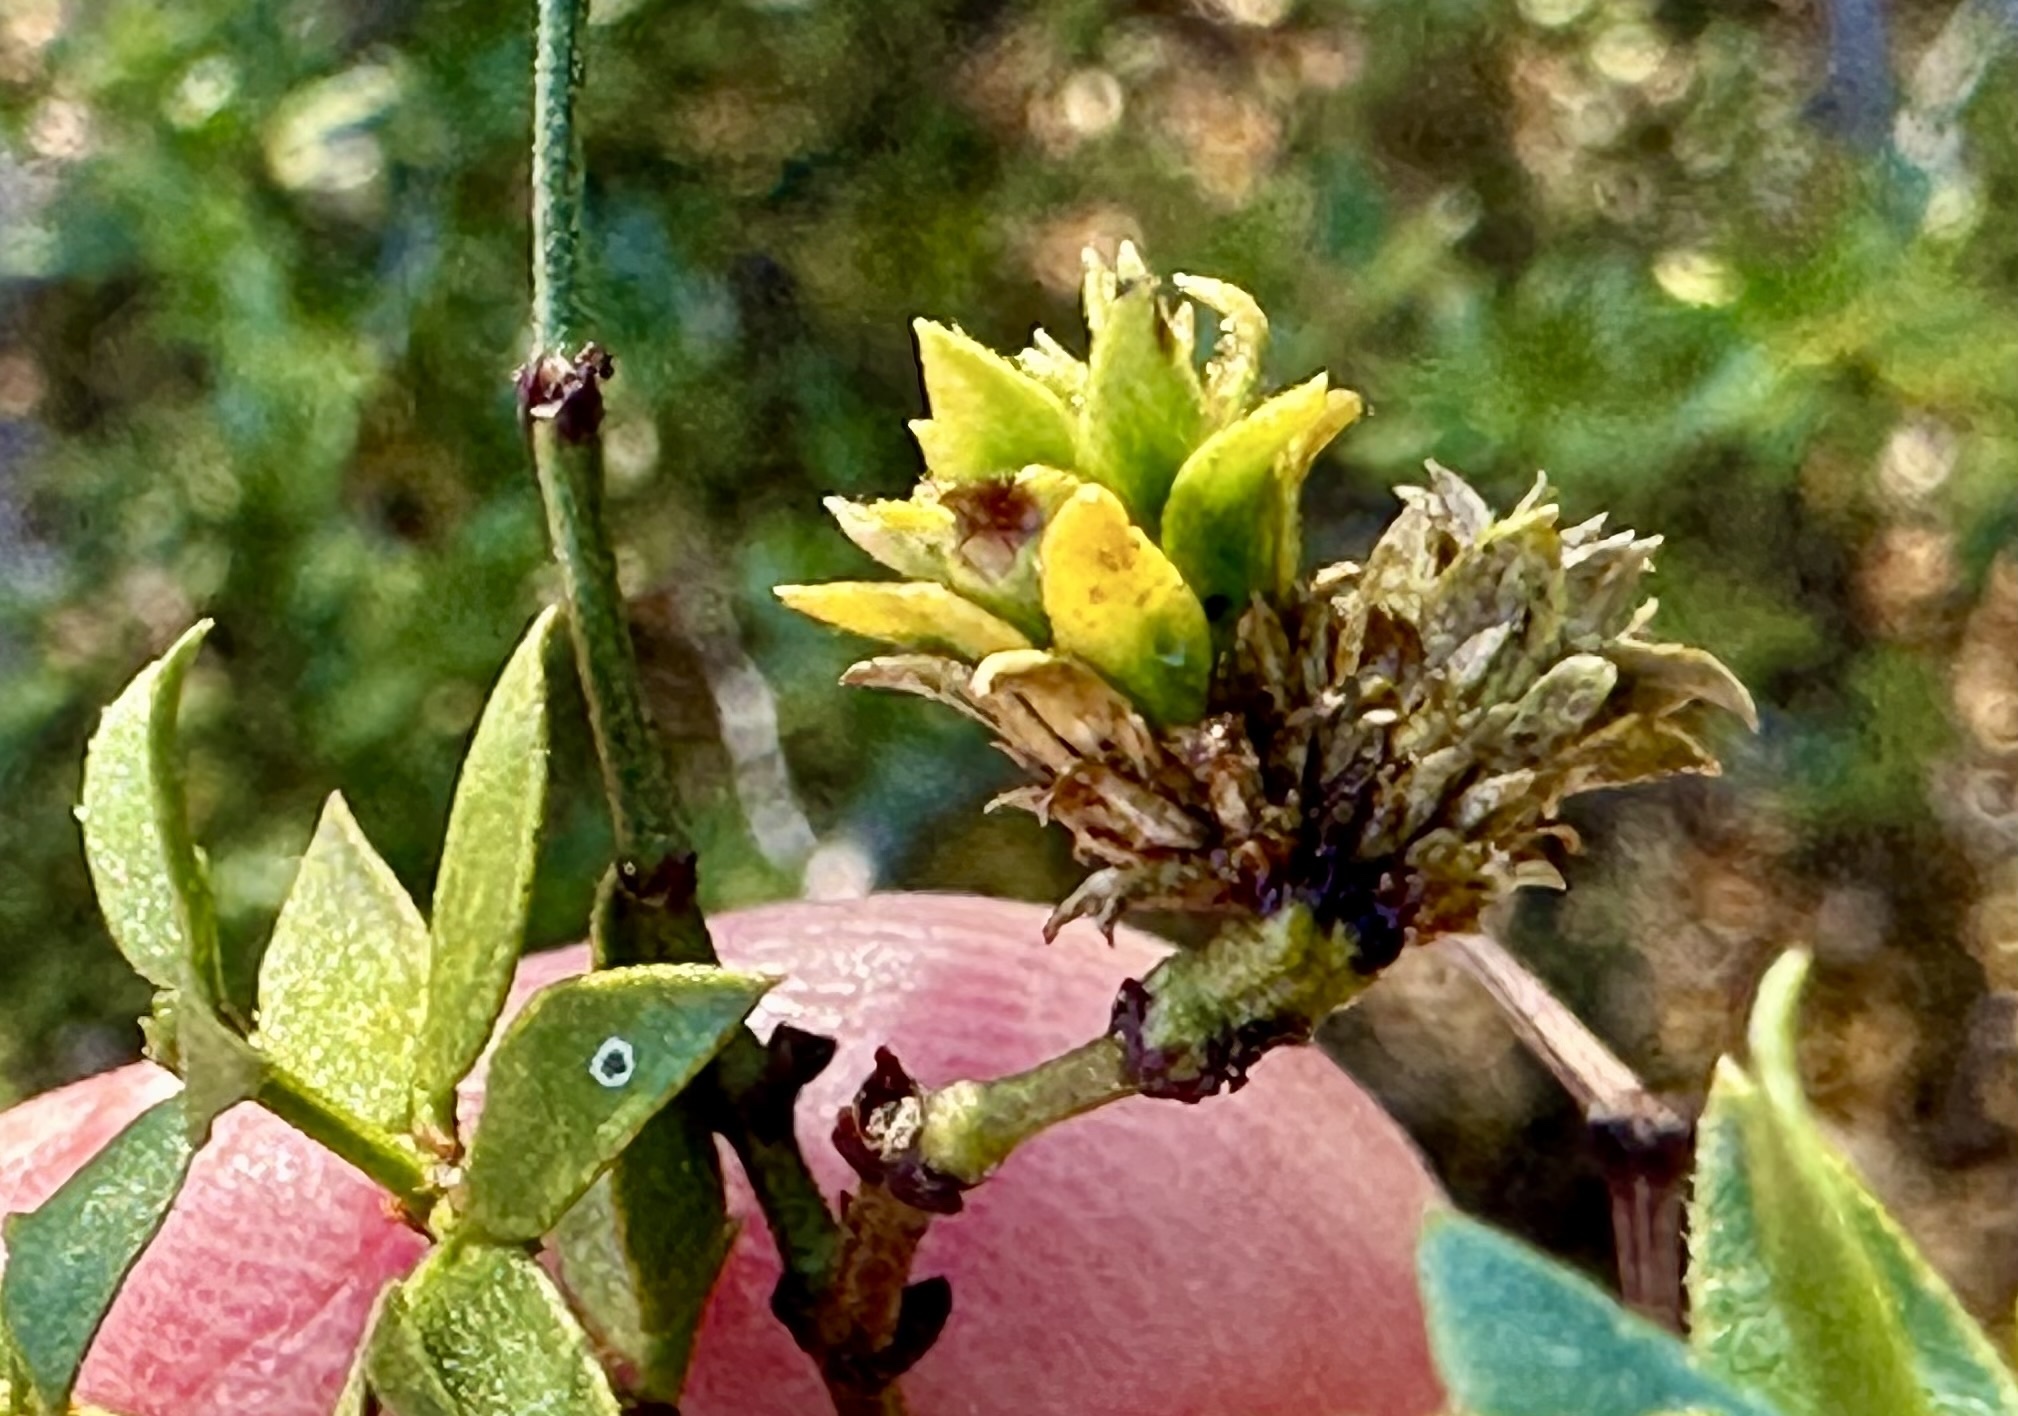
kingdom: Animalia
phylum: Arthropoda
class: Insecta
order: Diptera
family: Cecidomyiidae
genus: Asphondylia
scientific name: Asphondylia rosetta
